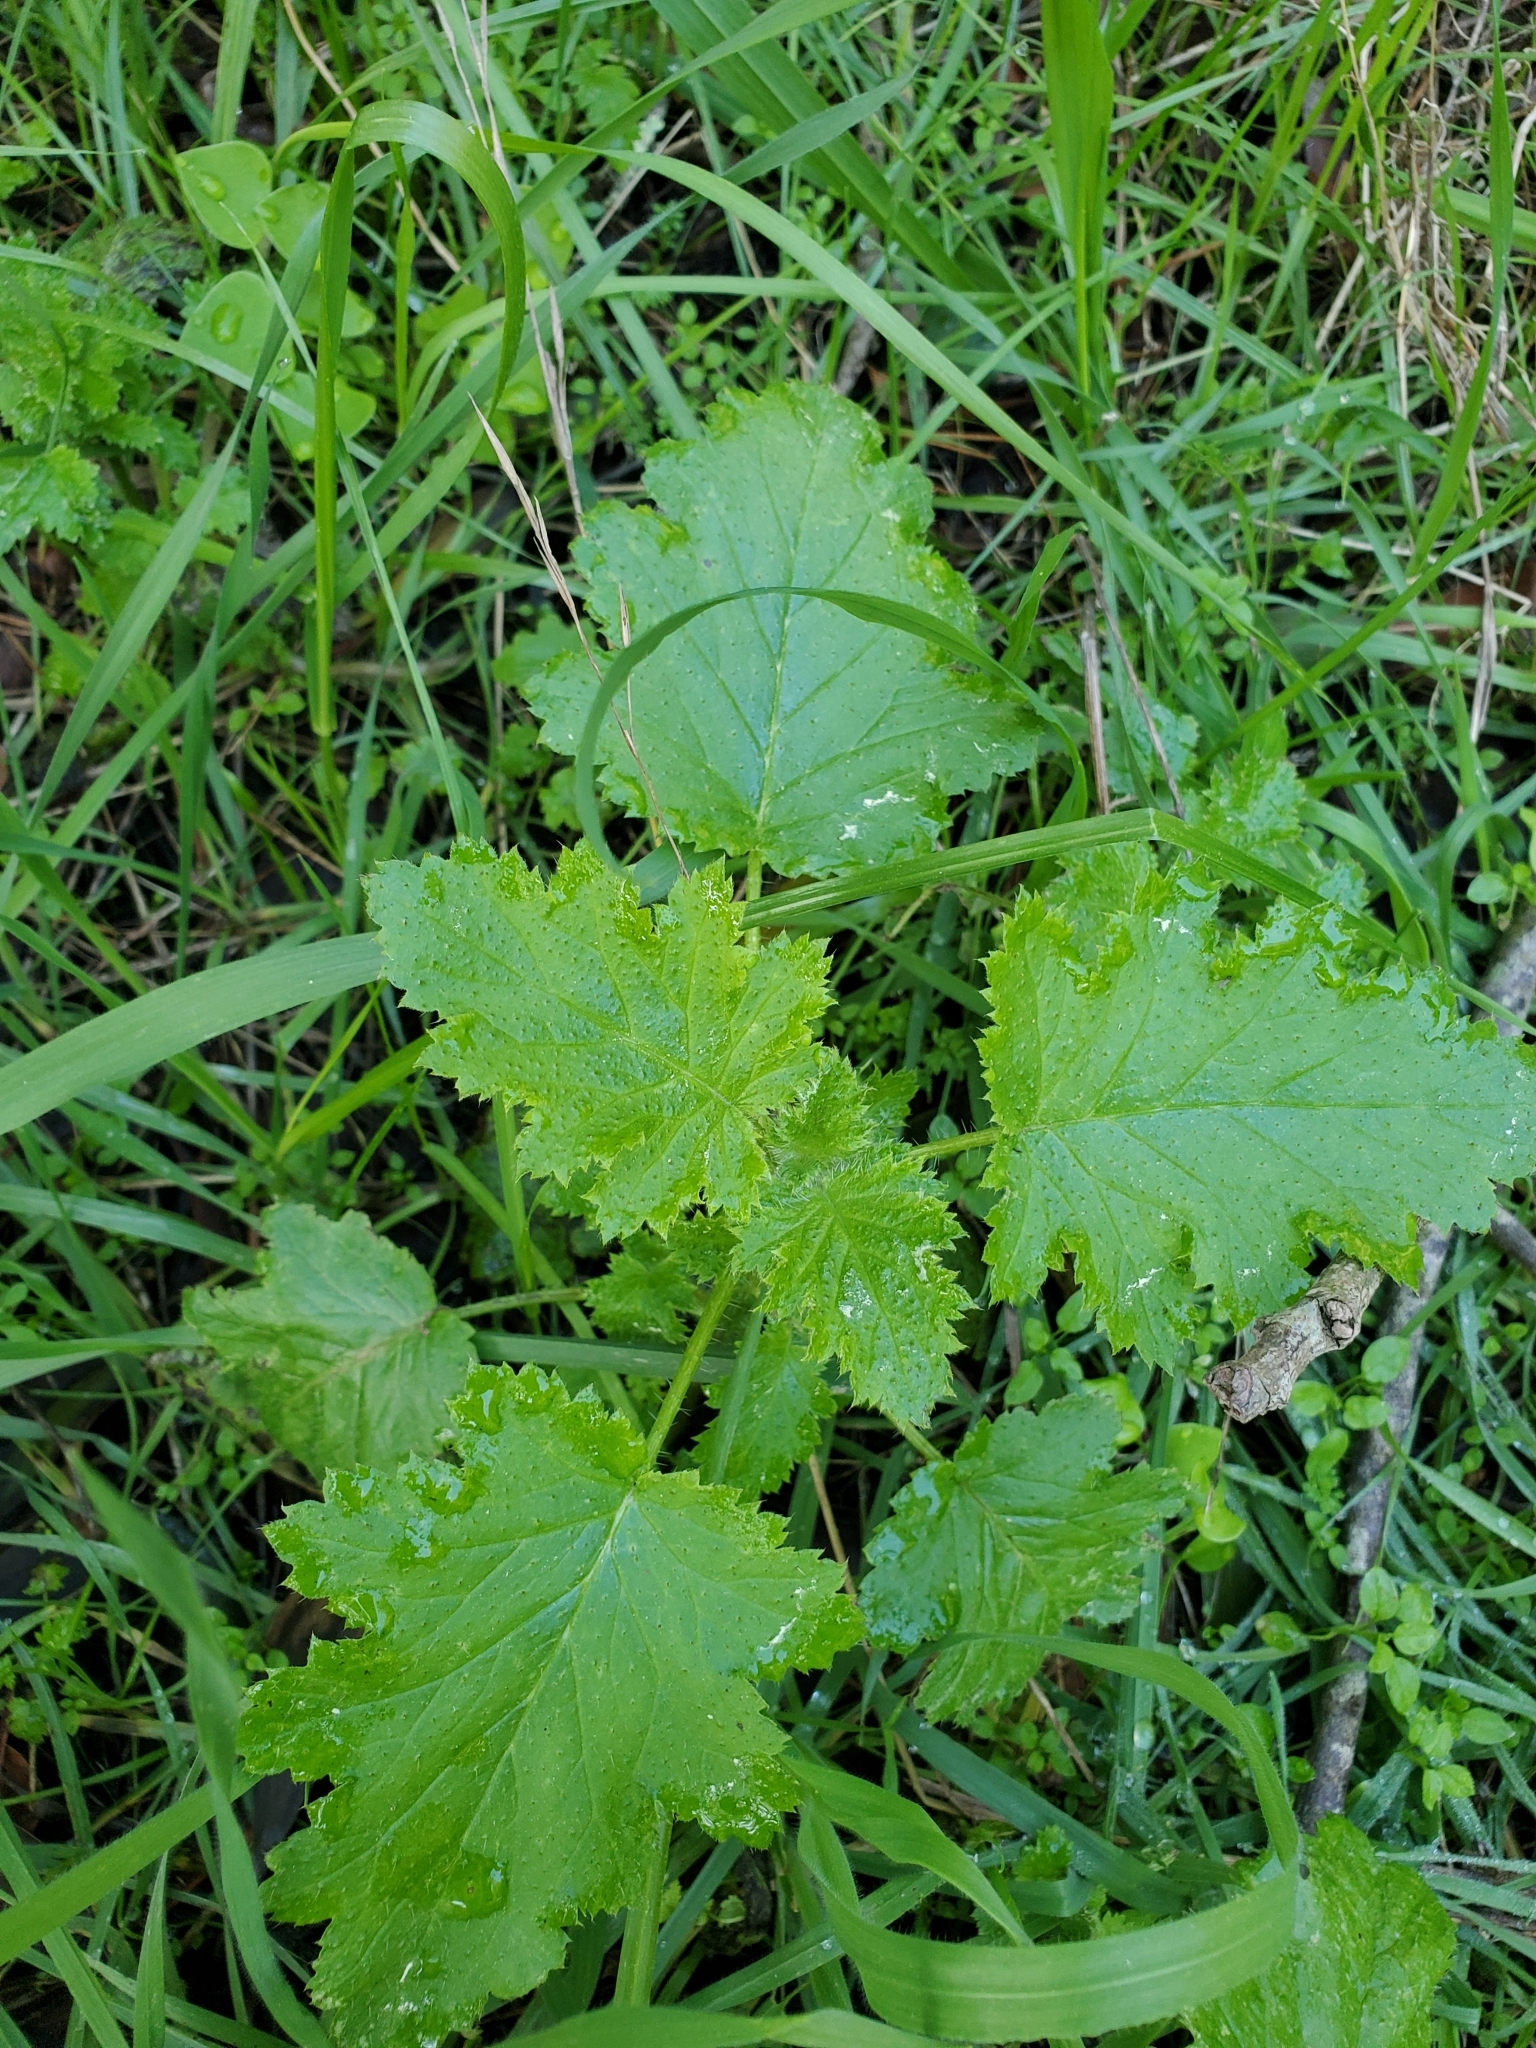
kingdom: Plantae
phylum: Tracheophyta
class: Magnoliopsida
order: Boraginales
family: Hydrophyllaceae
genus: Phacelia
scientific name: Phacelia malvifolia
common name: Mallow-leaf phacelia
